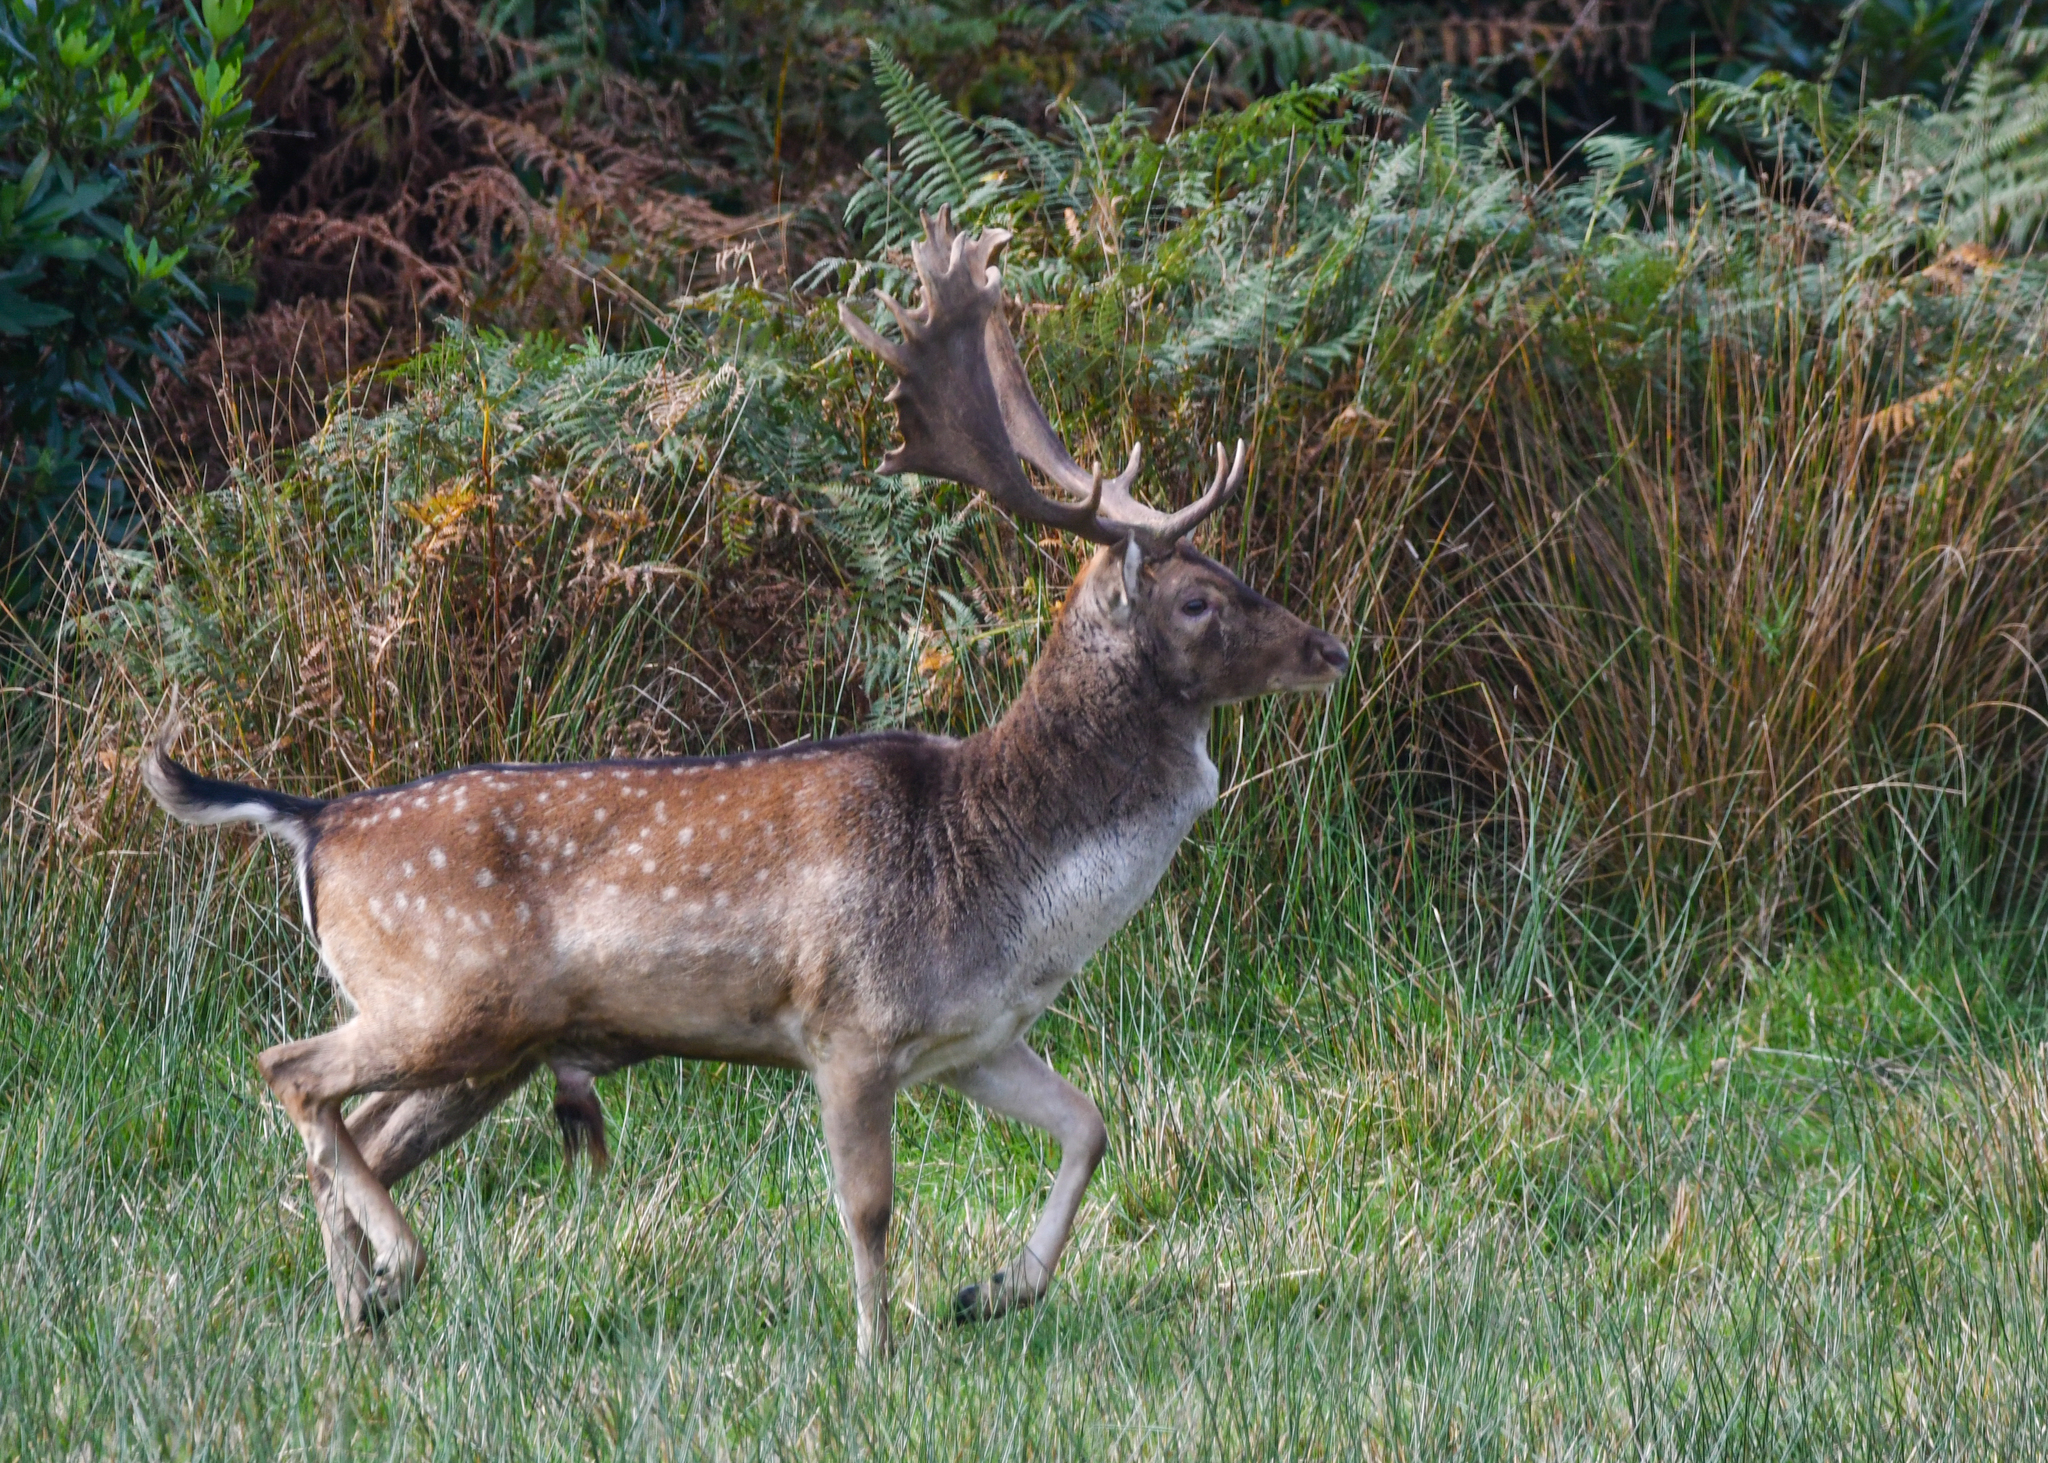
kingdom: Animalia
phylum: Chordata
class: Mammalia
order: Artiodactyla
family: Cervidae
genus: Dama
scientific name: Dama dama
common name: Fallow deer
